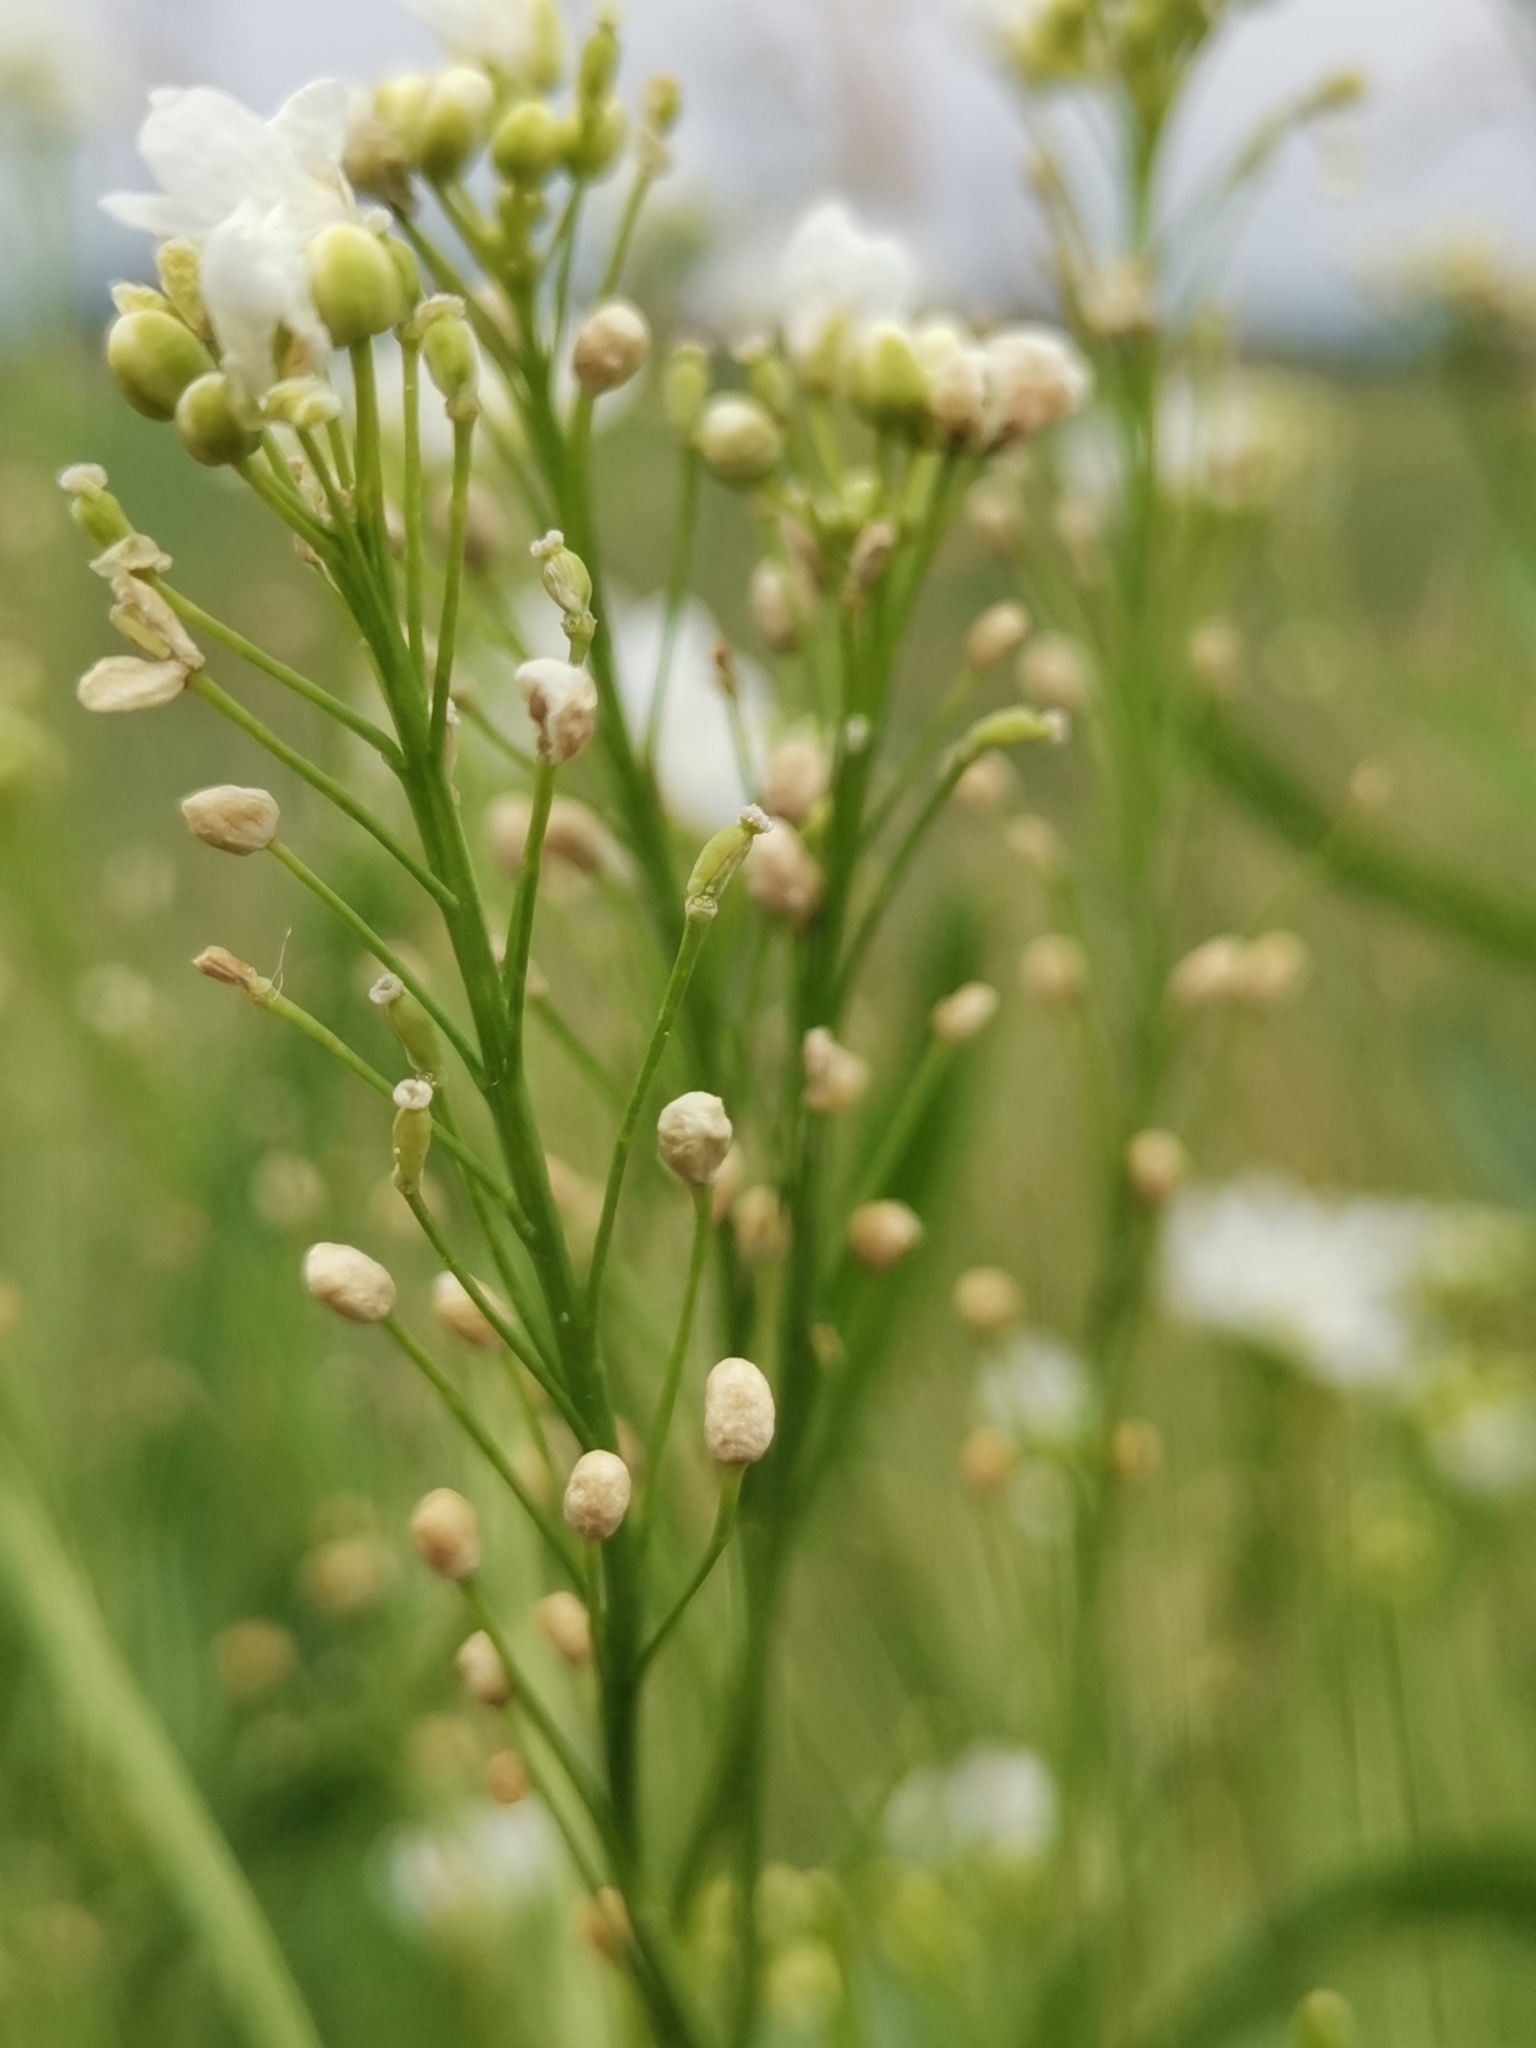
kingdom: Plantae
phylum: Tracheophyta
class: Magnoliopsida
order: Brassicales
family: Brassicaceae
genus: Armoracia
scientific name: Armoracia rusticana
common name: Horseradish
